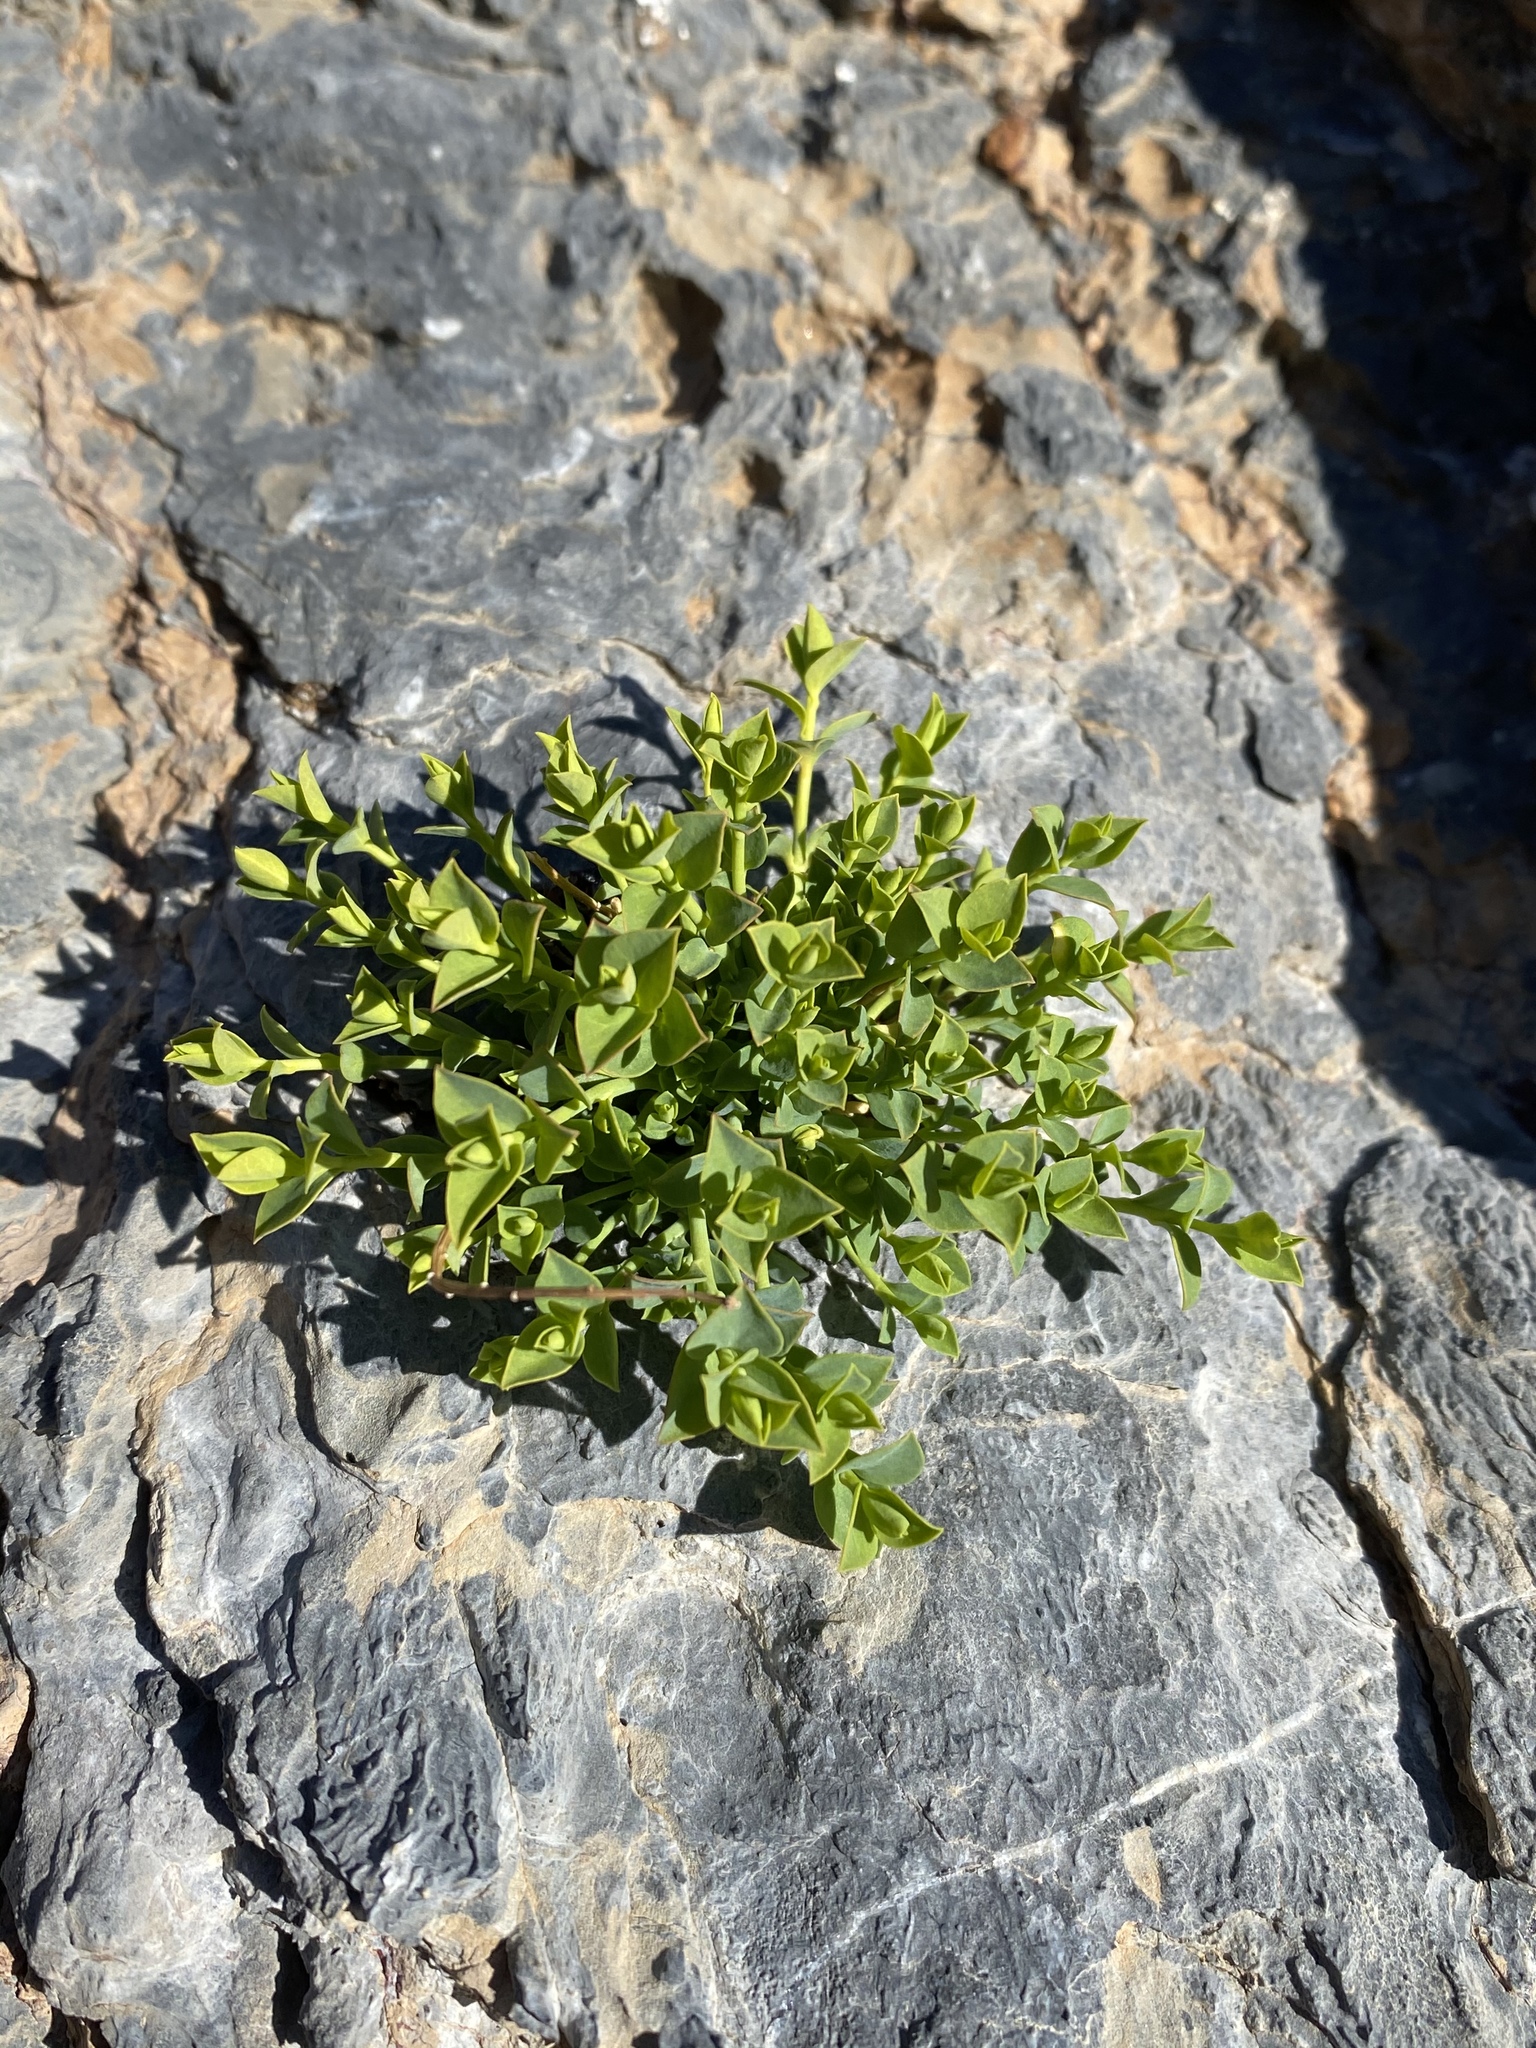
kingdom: Plantae
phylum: Tracheophyta
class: Magnoliopsida
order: Malpighiales
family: Euphorbiaceae
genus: Euphorbia
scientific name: Euphorbia schizoloba
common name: Mojave spurge
